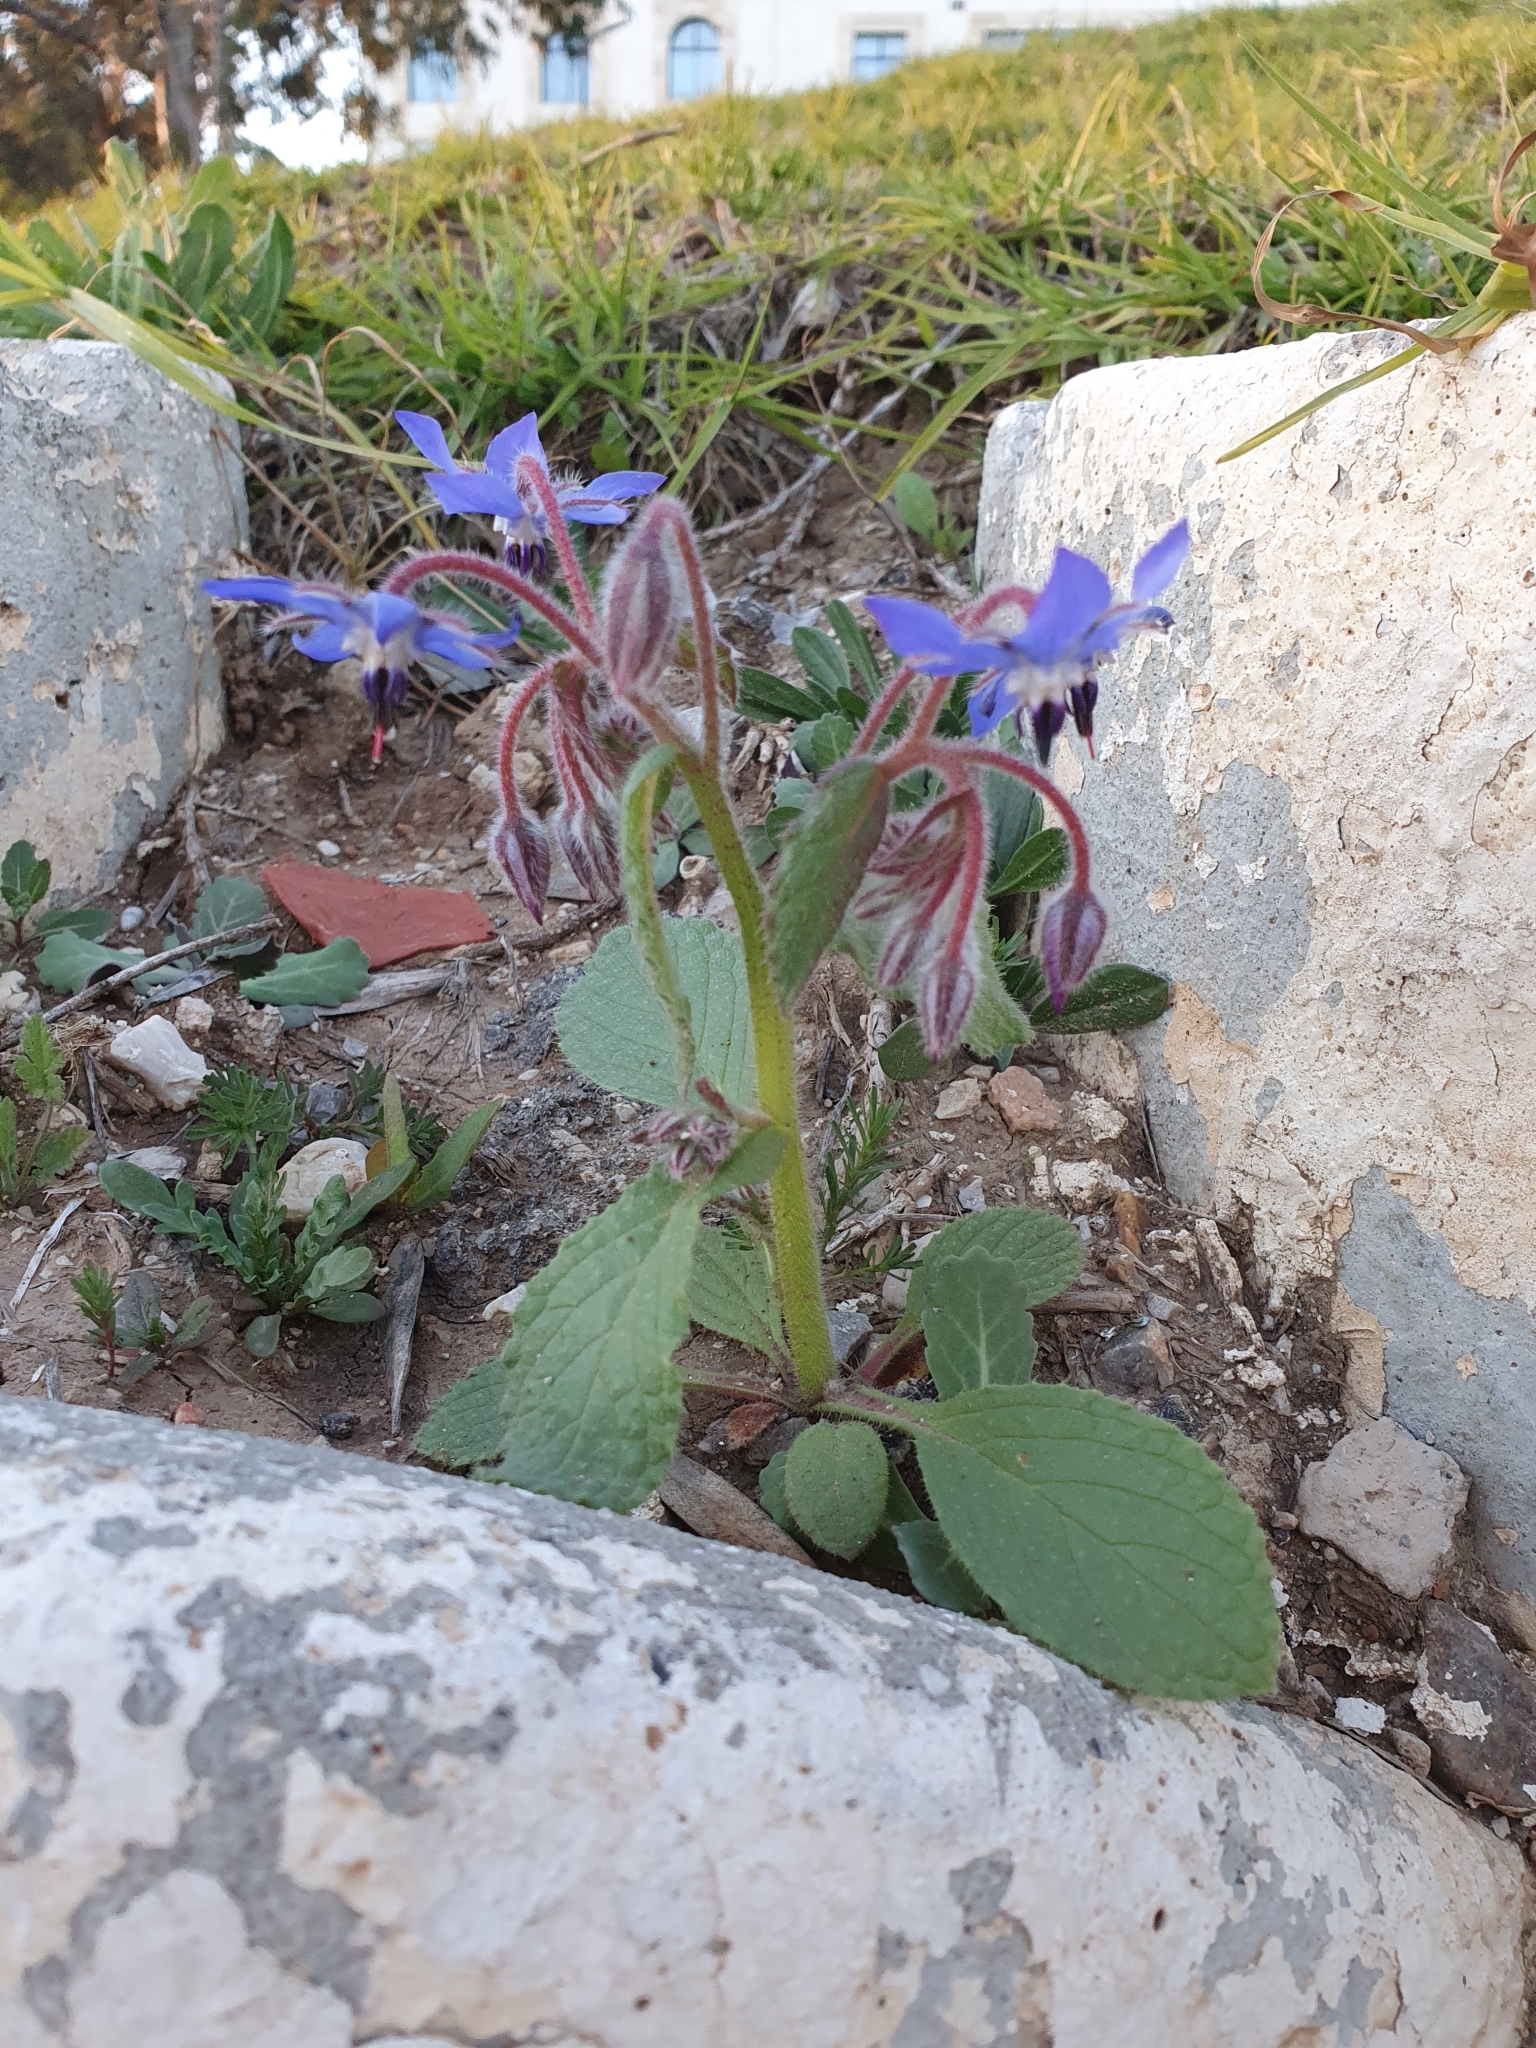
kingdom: Plantae
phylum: Tracheophyta
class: Magnoliopsida
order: Boraginales
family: Boraginaceae
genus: Borago
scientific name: Borago officinalis
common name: Borage
